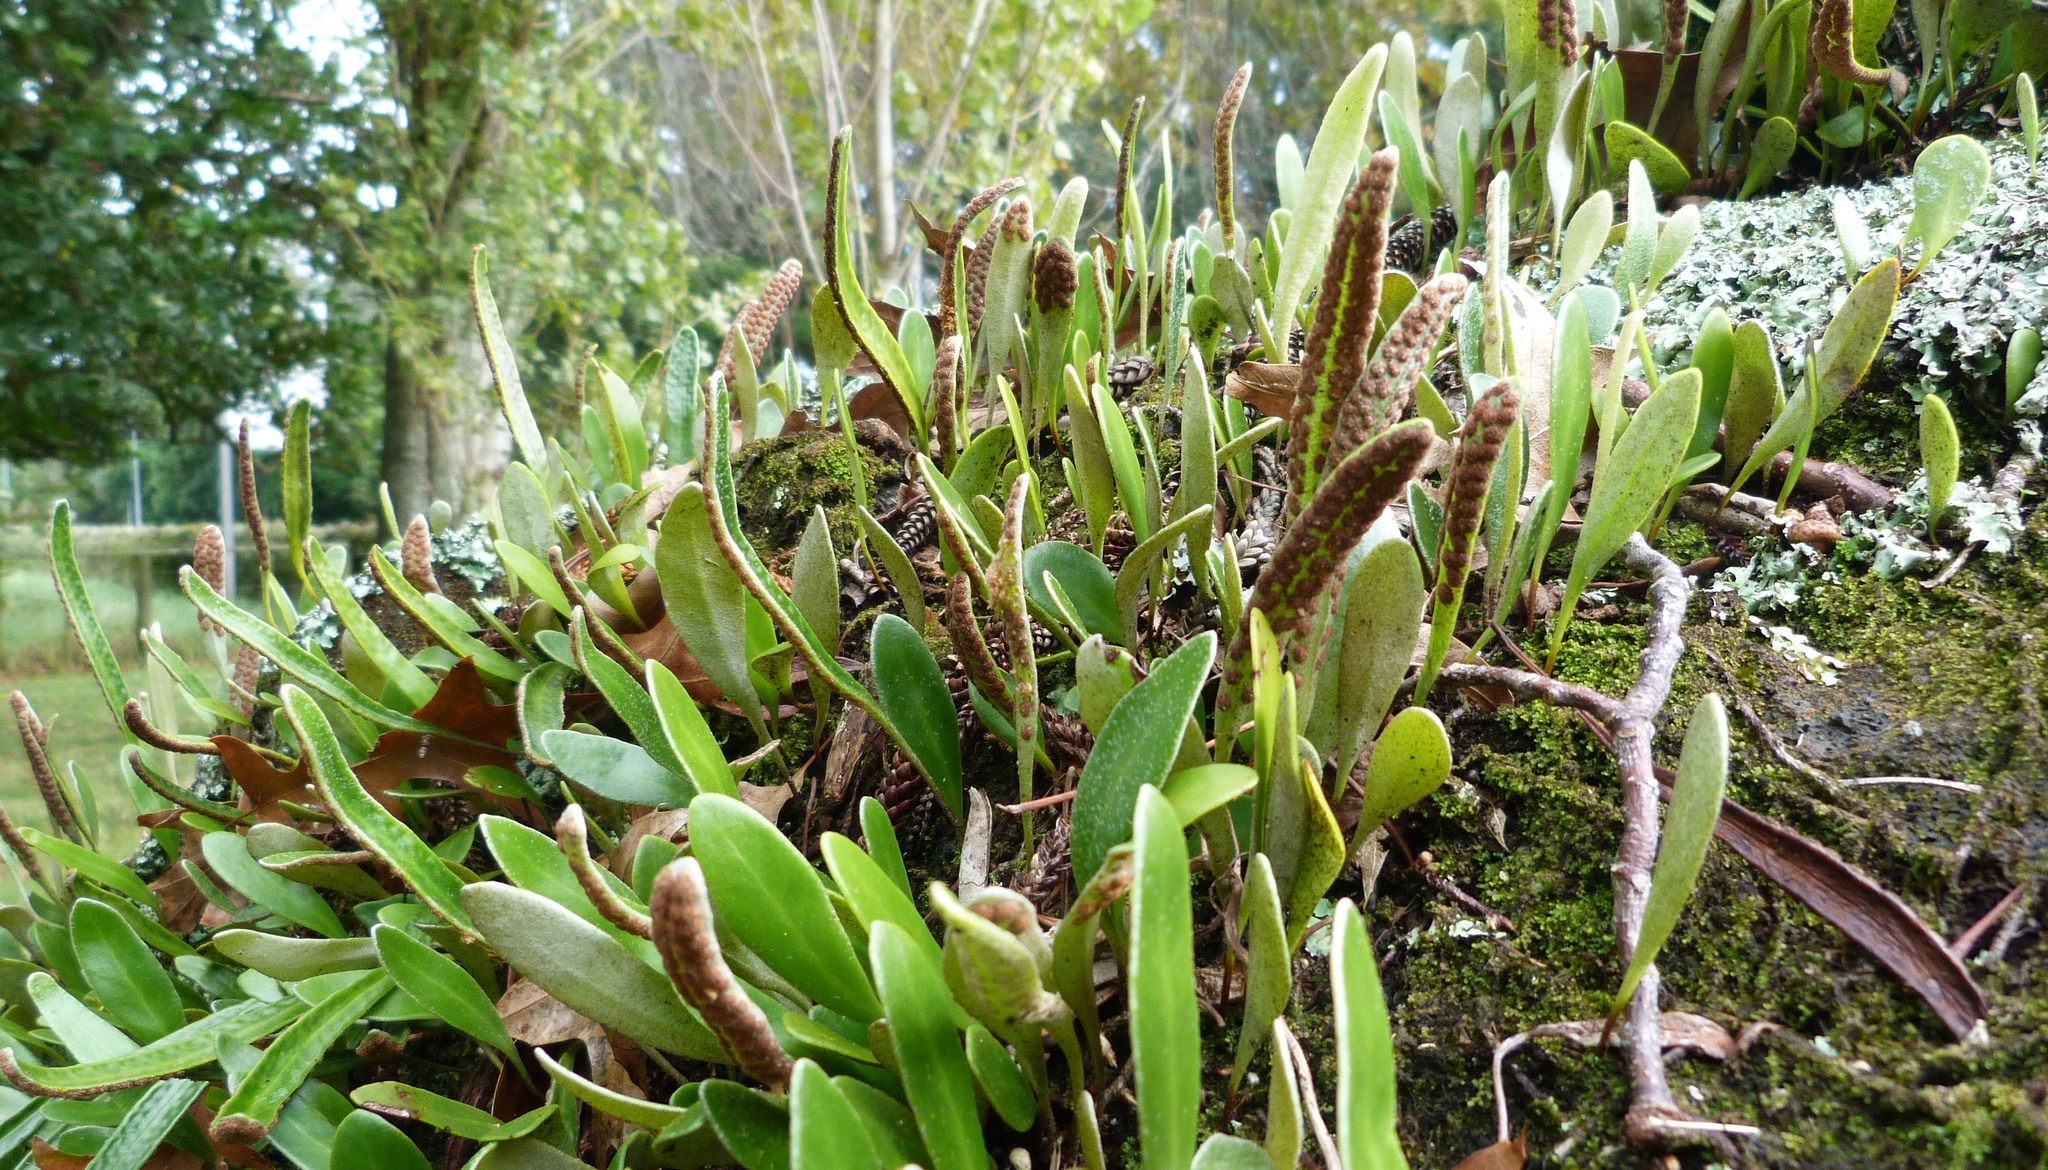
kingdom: Plantae
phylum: Tracheophyta
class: Polypodiopsida
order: Polypodiales
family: Polypodiaceae
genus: Pyrrosia
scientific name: Pyrrosia eleagnifolia
